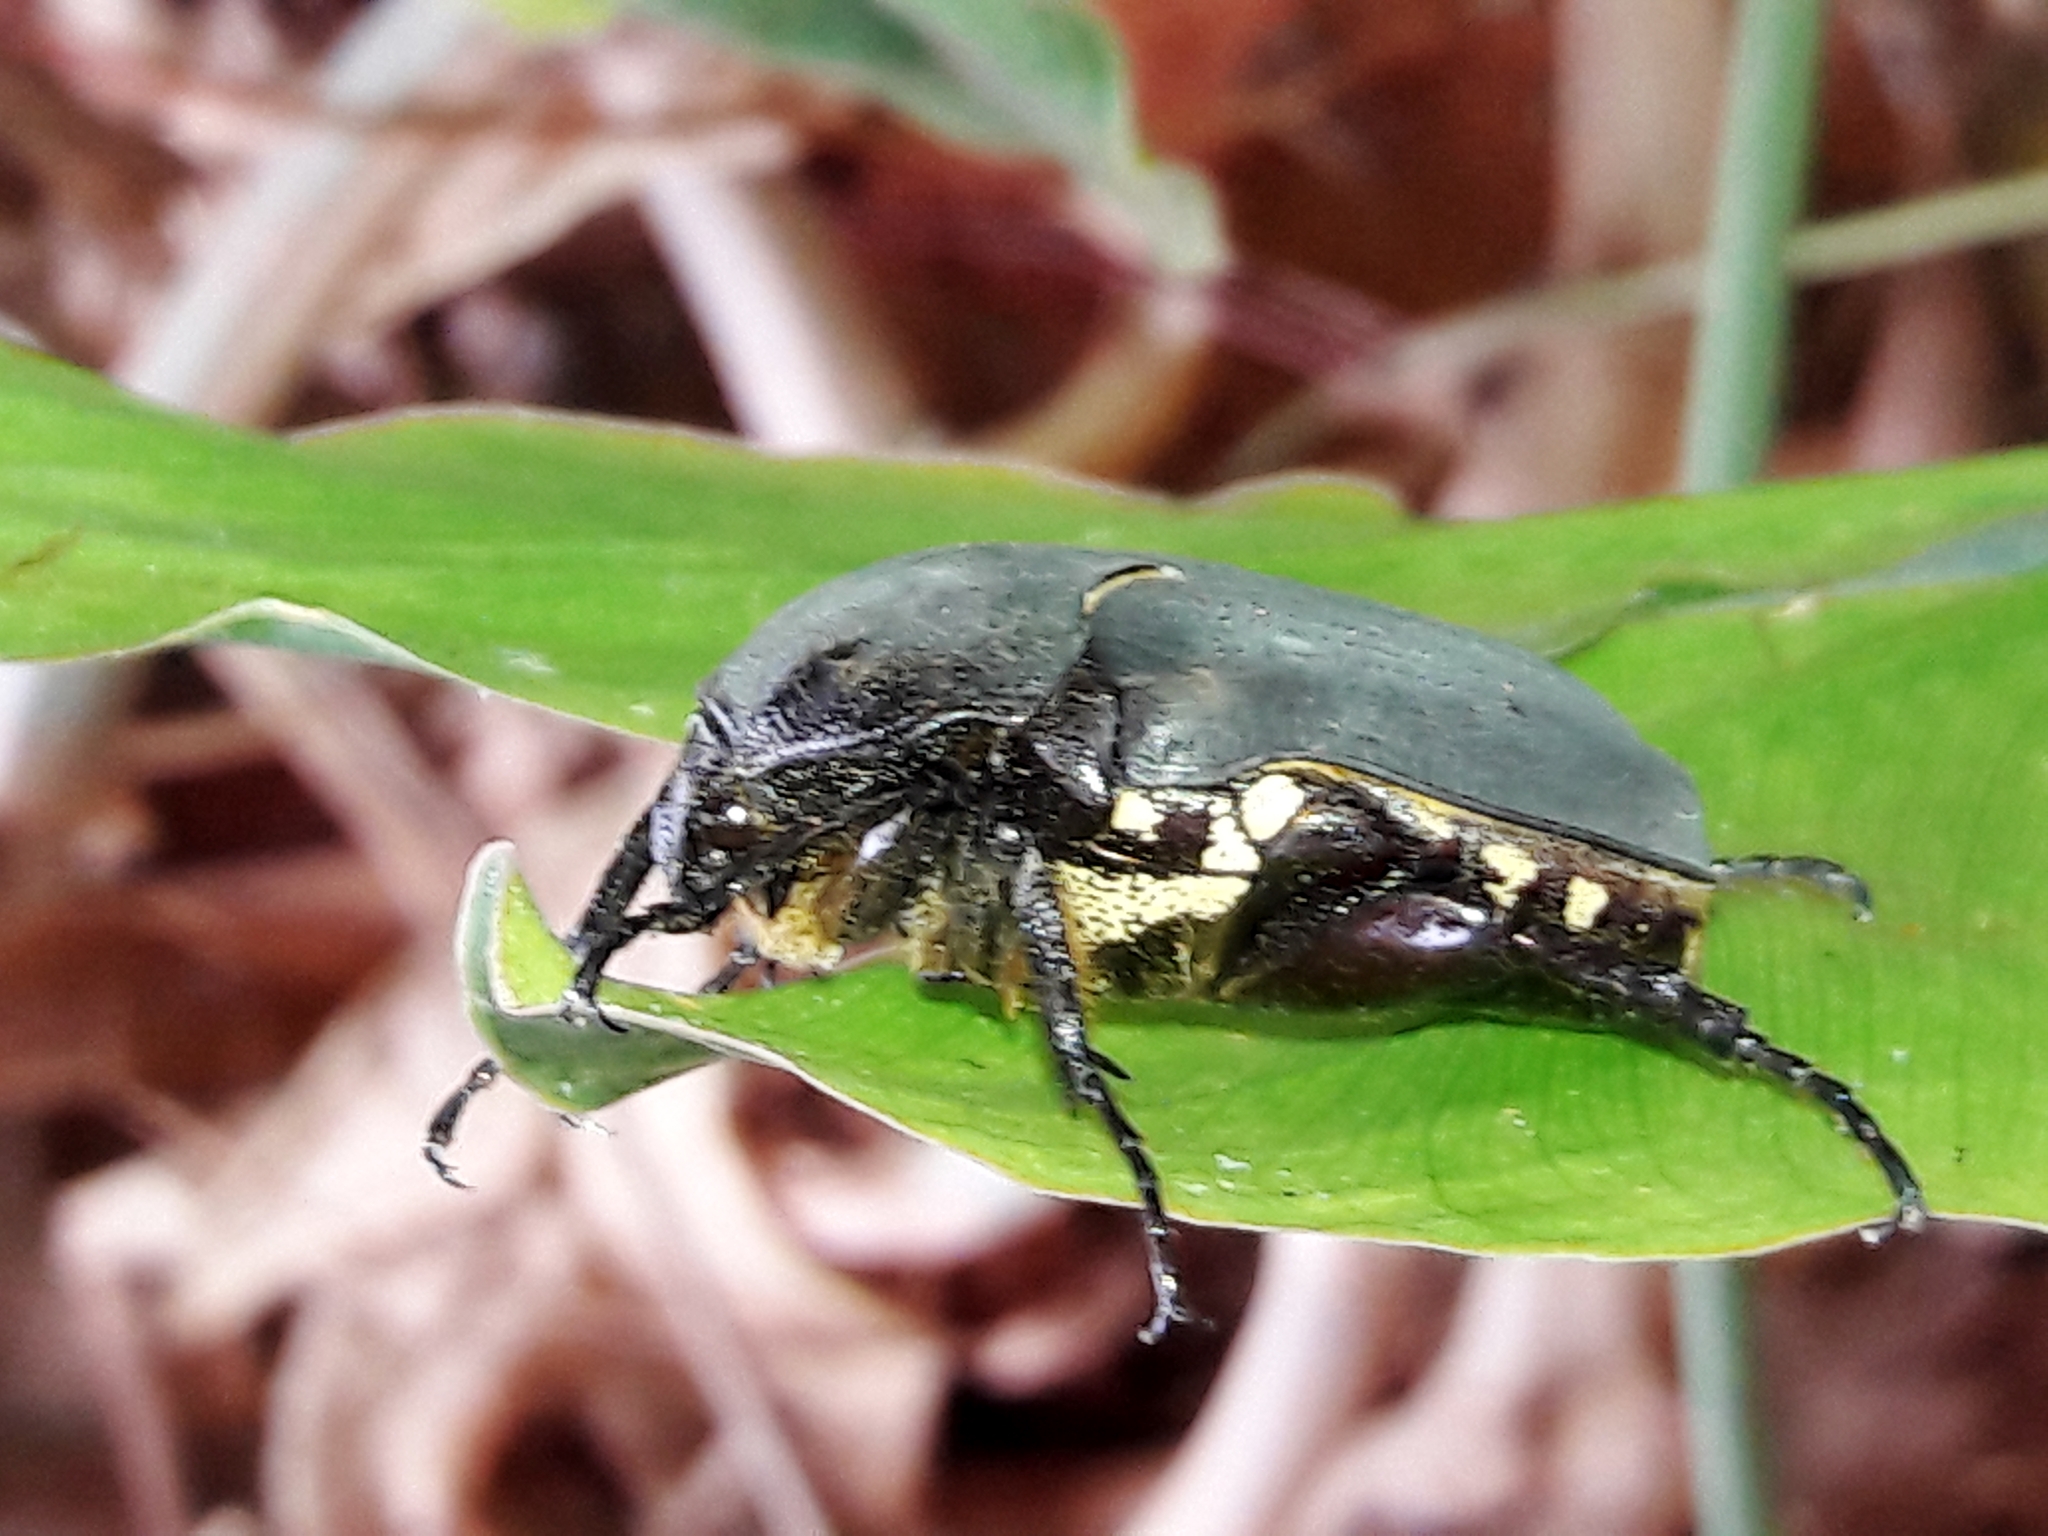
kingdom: Animalia
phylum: Arthropoda
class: Insecta
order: Coleoptera
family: Scarabaeidae
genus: Allorrhina
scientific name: Allorrhina menetriesi
